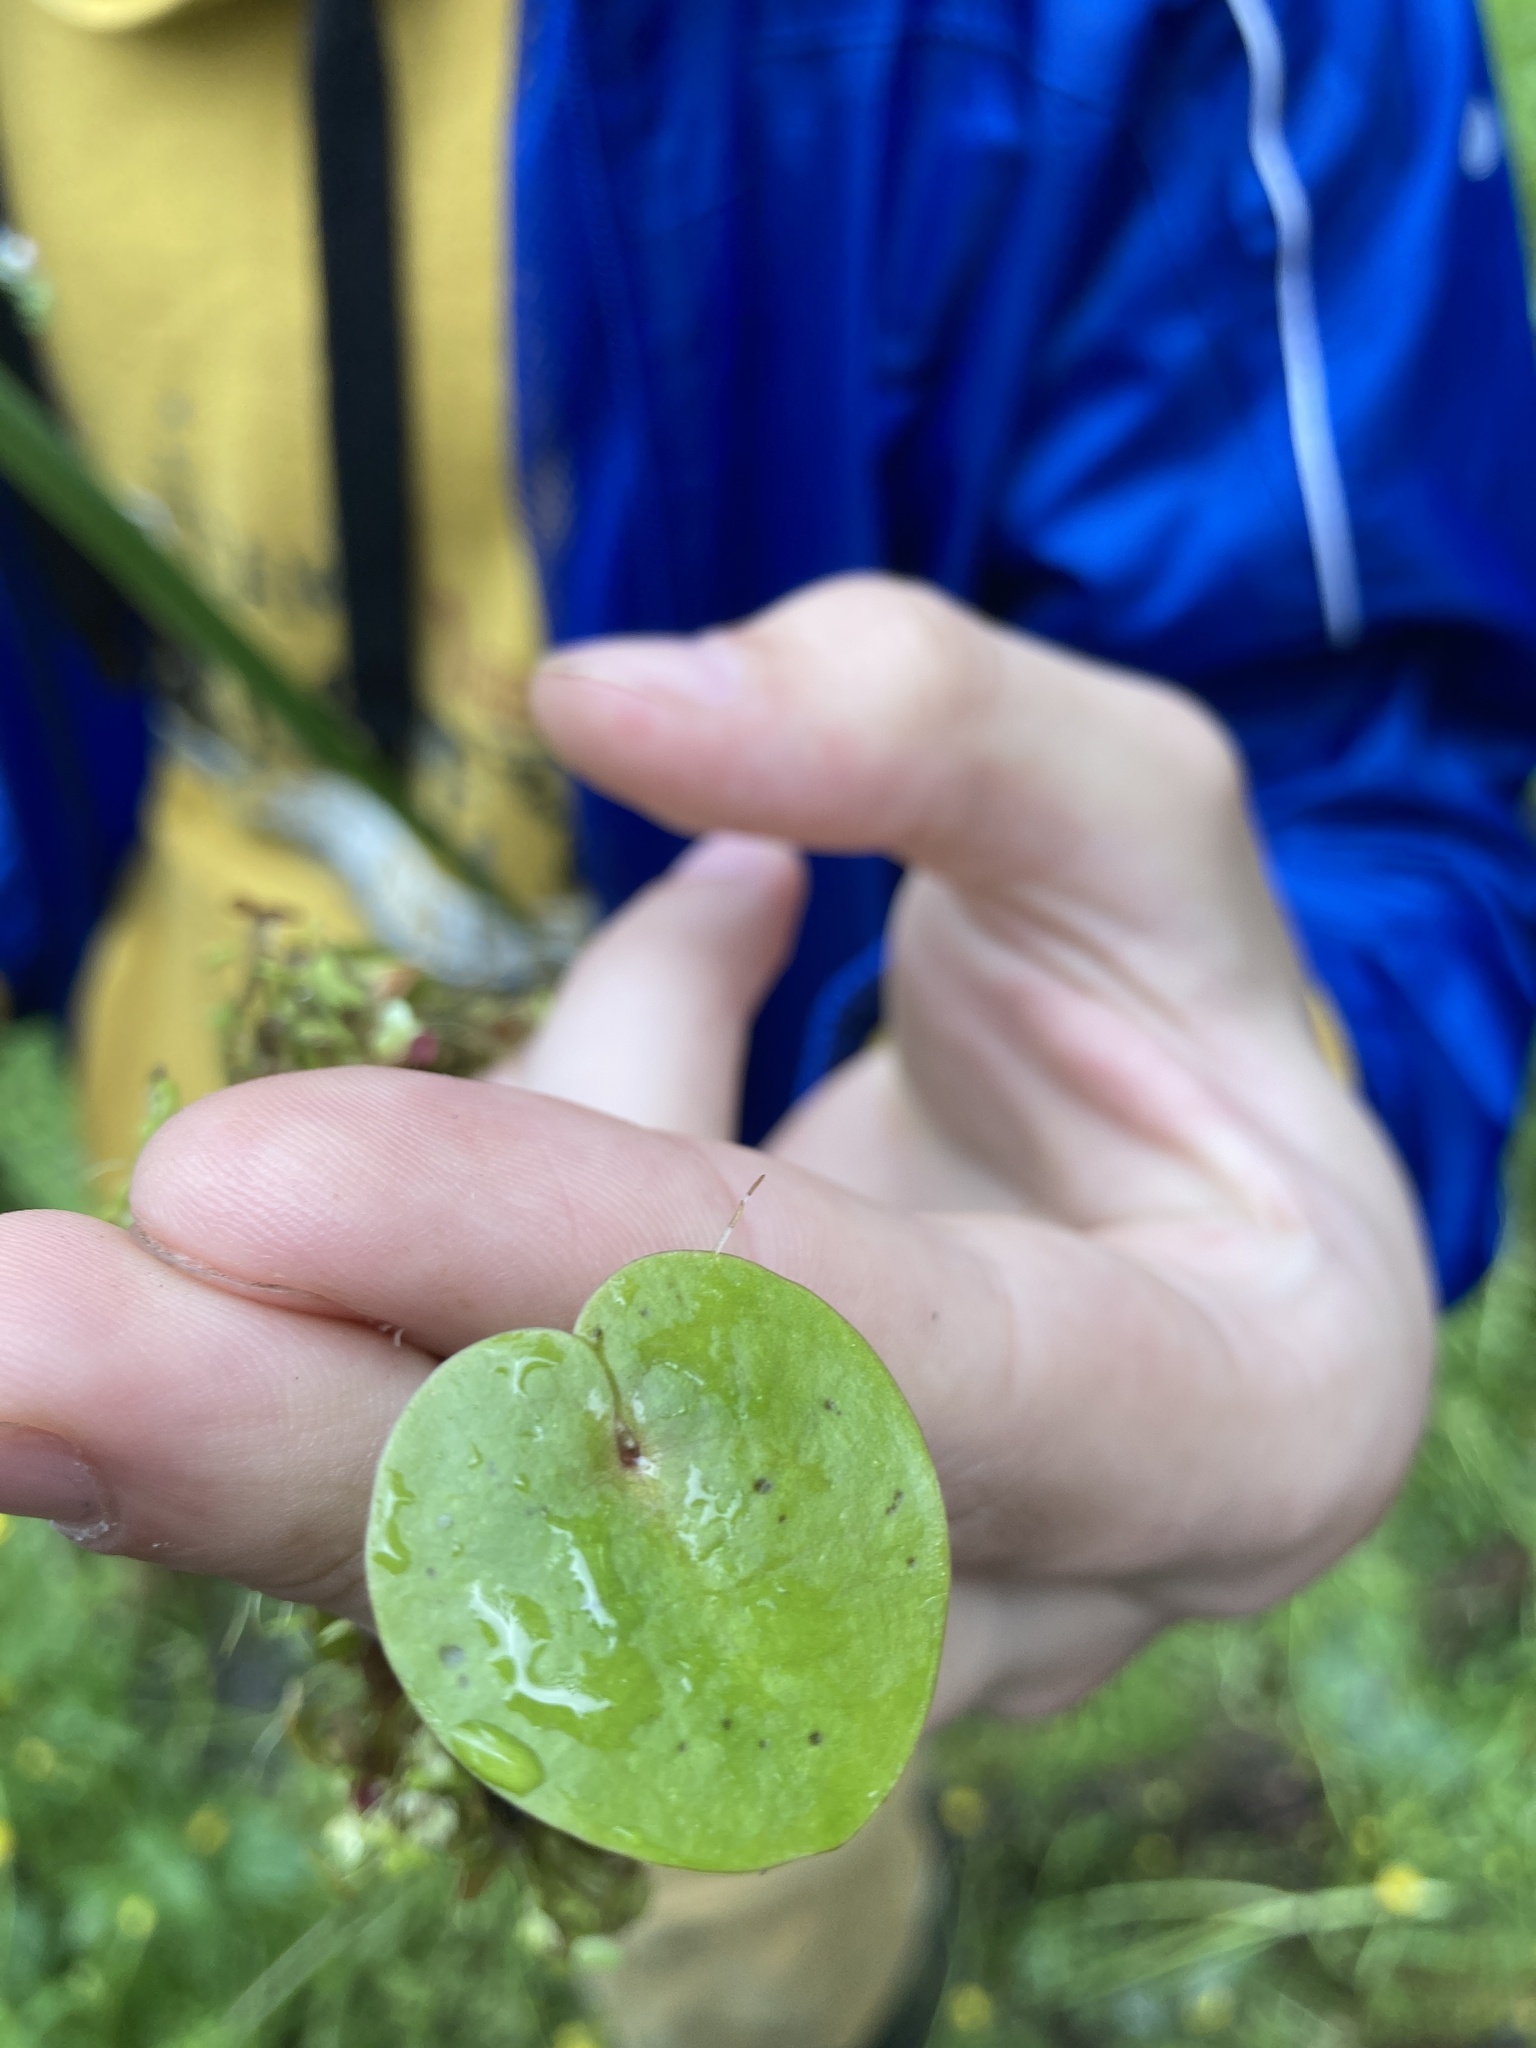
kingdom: Plantae
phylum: Tracheophyta
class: Liliopsida
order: Alismatales
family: Hydrocharitaceae
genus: Hydrocharis
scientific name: Hydrocharis morsus-ranae
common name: Frogbit
